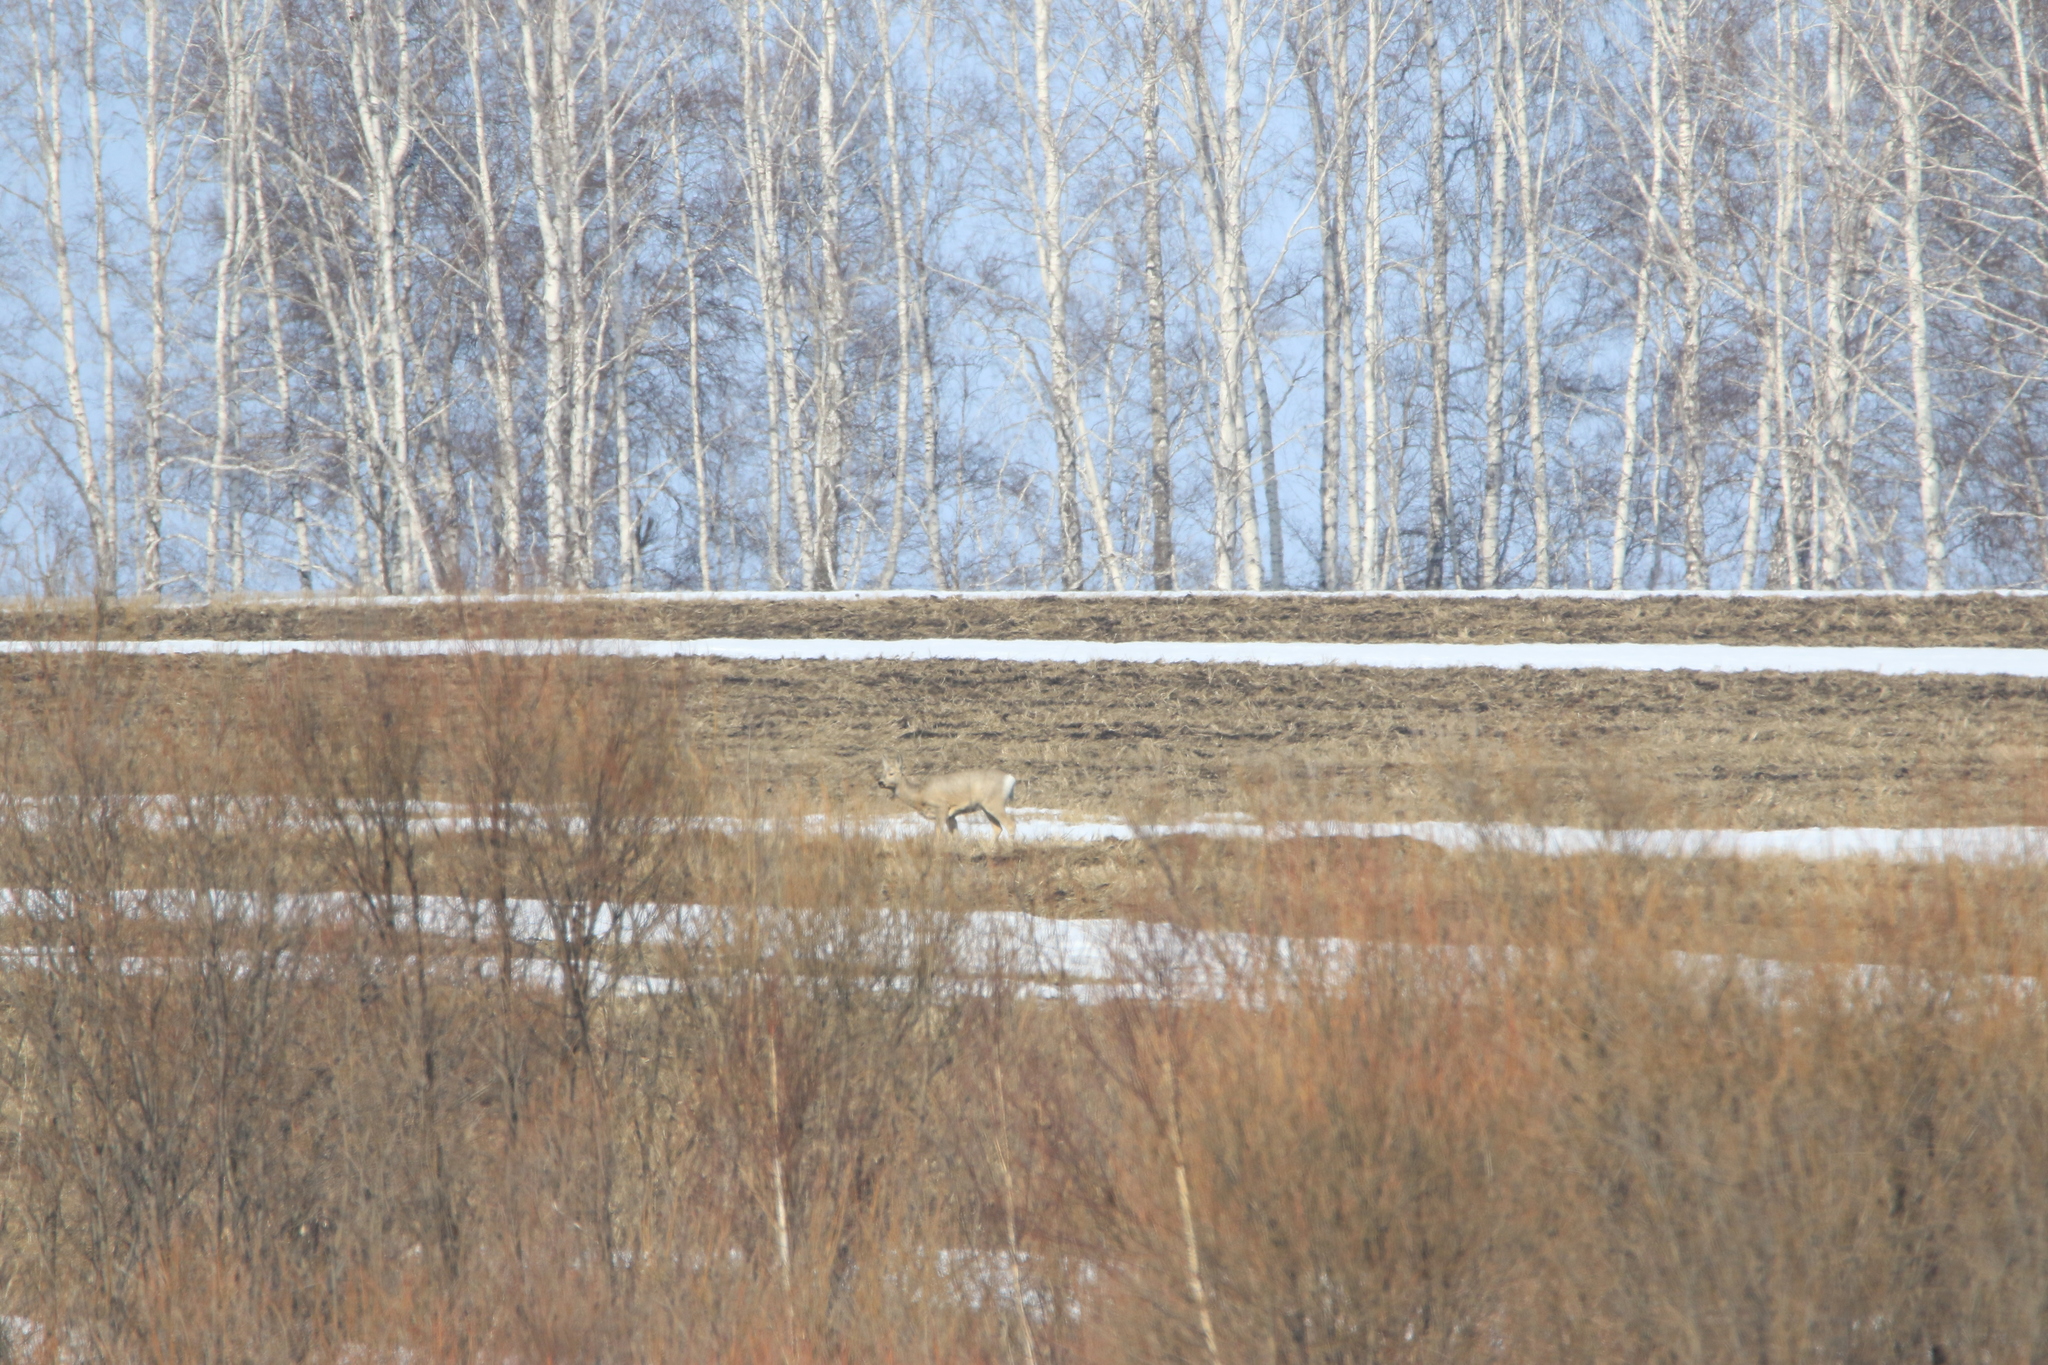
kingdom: Animalia
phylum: Chordata
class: Mammalia
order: Artiodactyla
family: Cervidae
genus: Capreolus
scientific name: Capreolus pygargus
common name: Siberian roe
